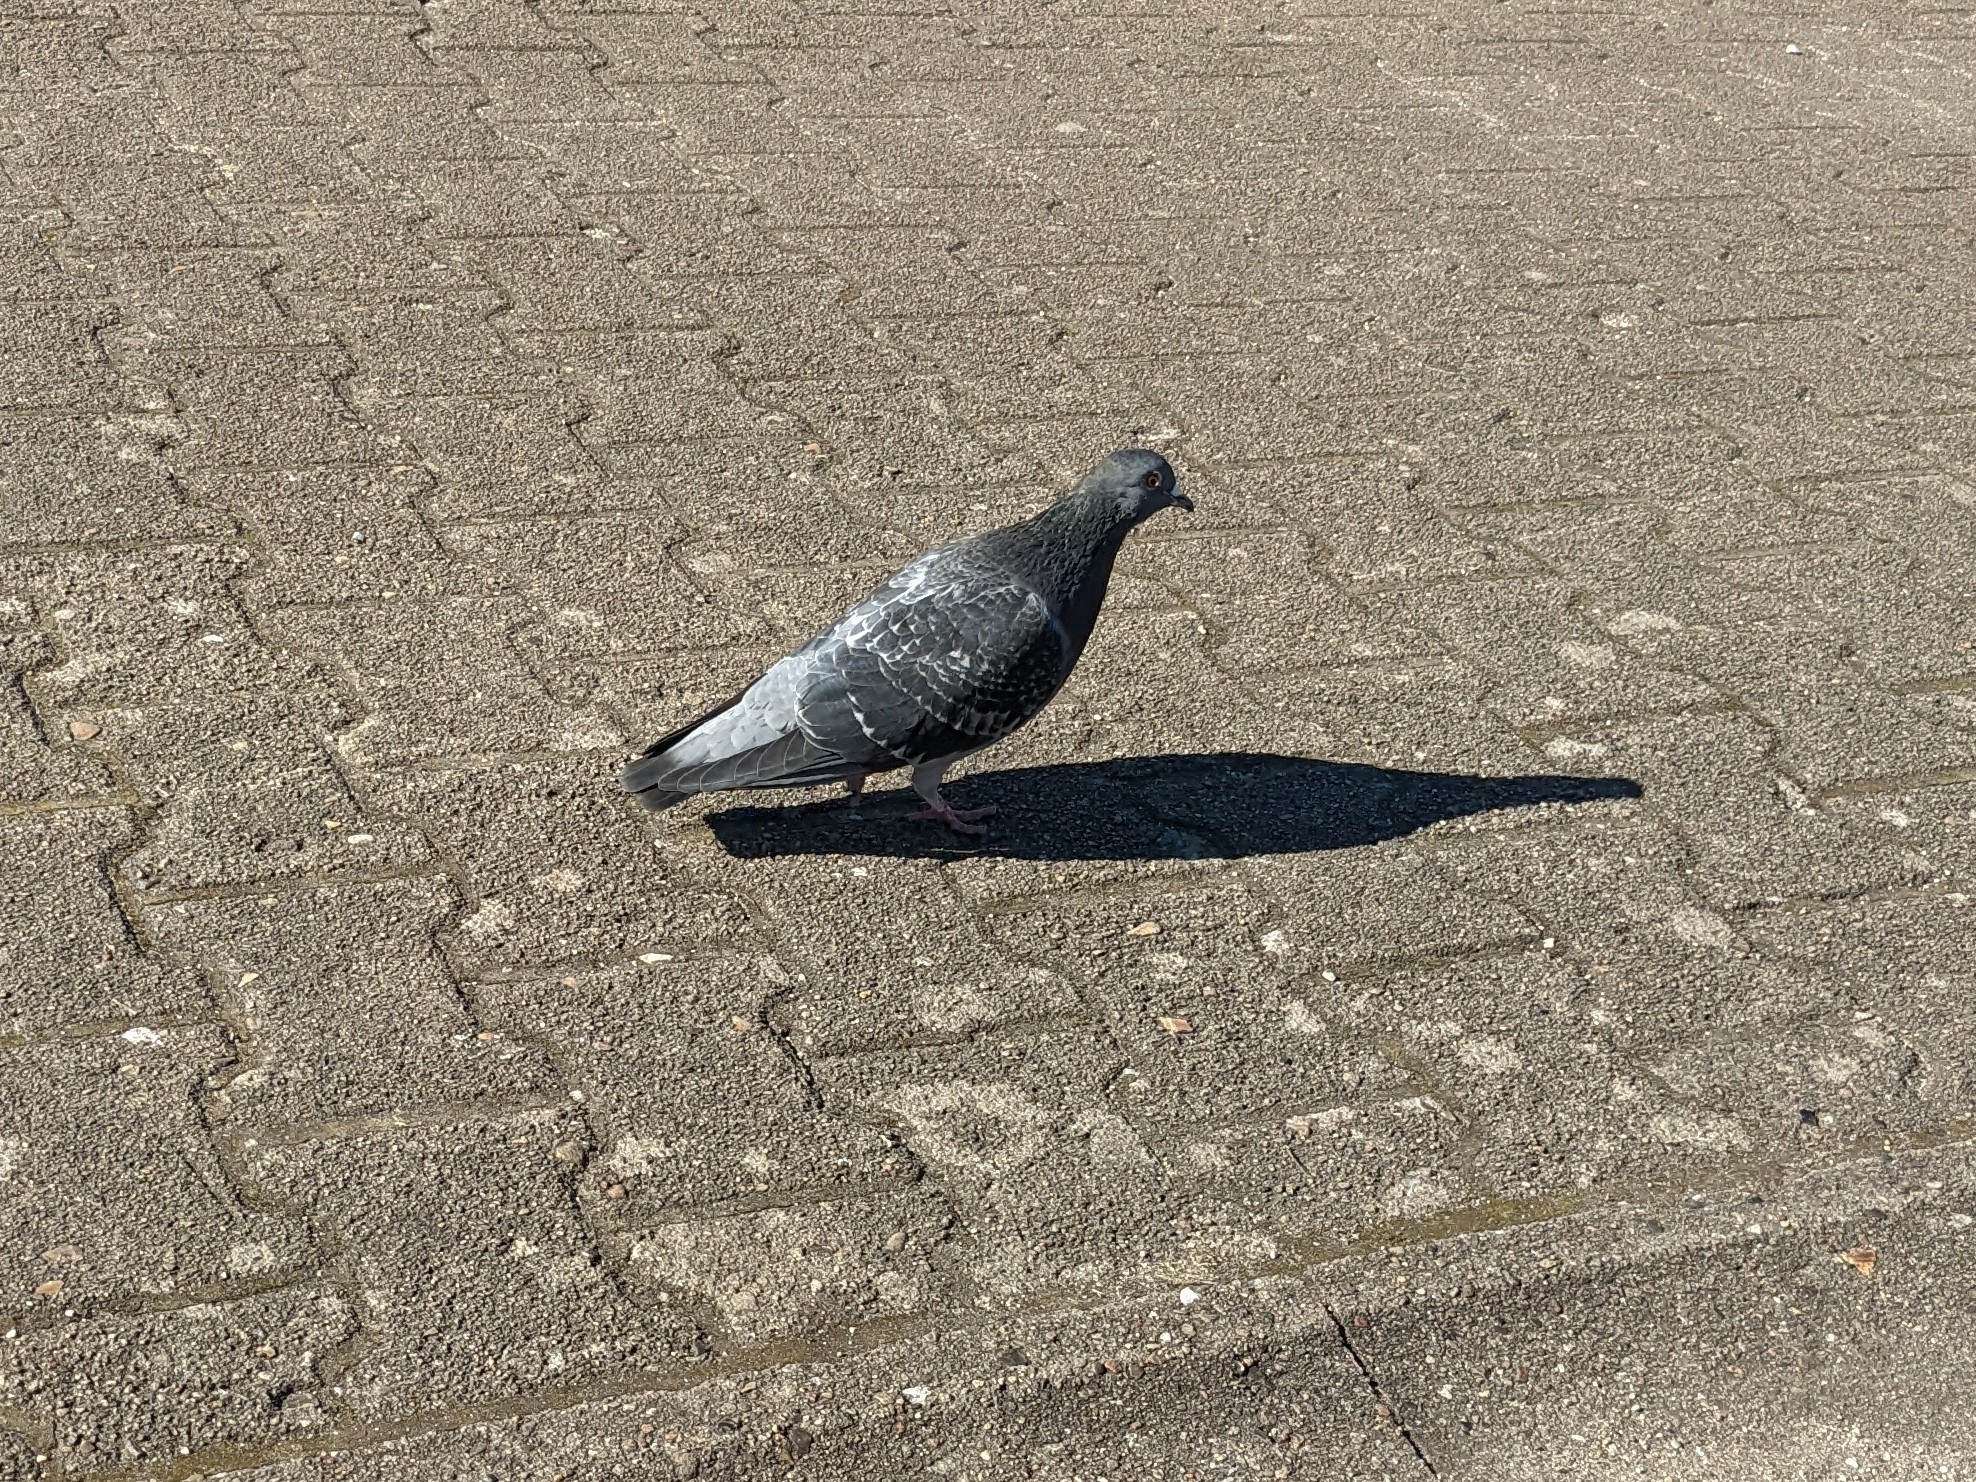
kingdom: Animalia
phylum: Chordata
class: Aves
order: Columbiformes
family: Columbidae
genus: Columba
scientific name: Columba livia
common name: Rock pigeon
